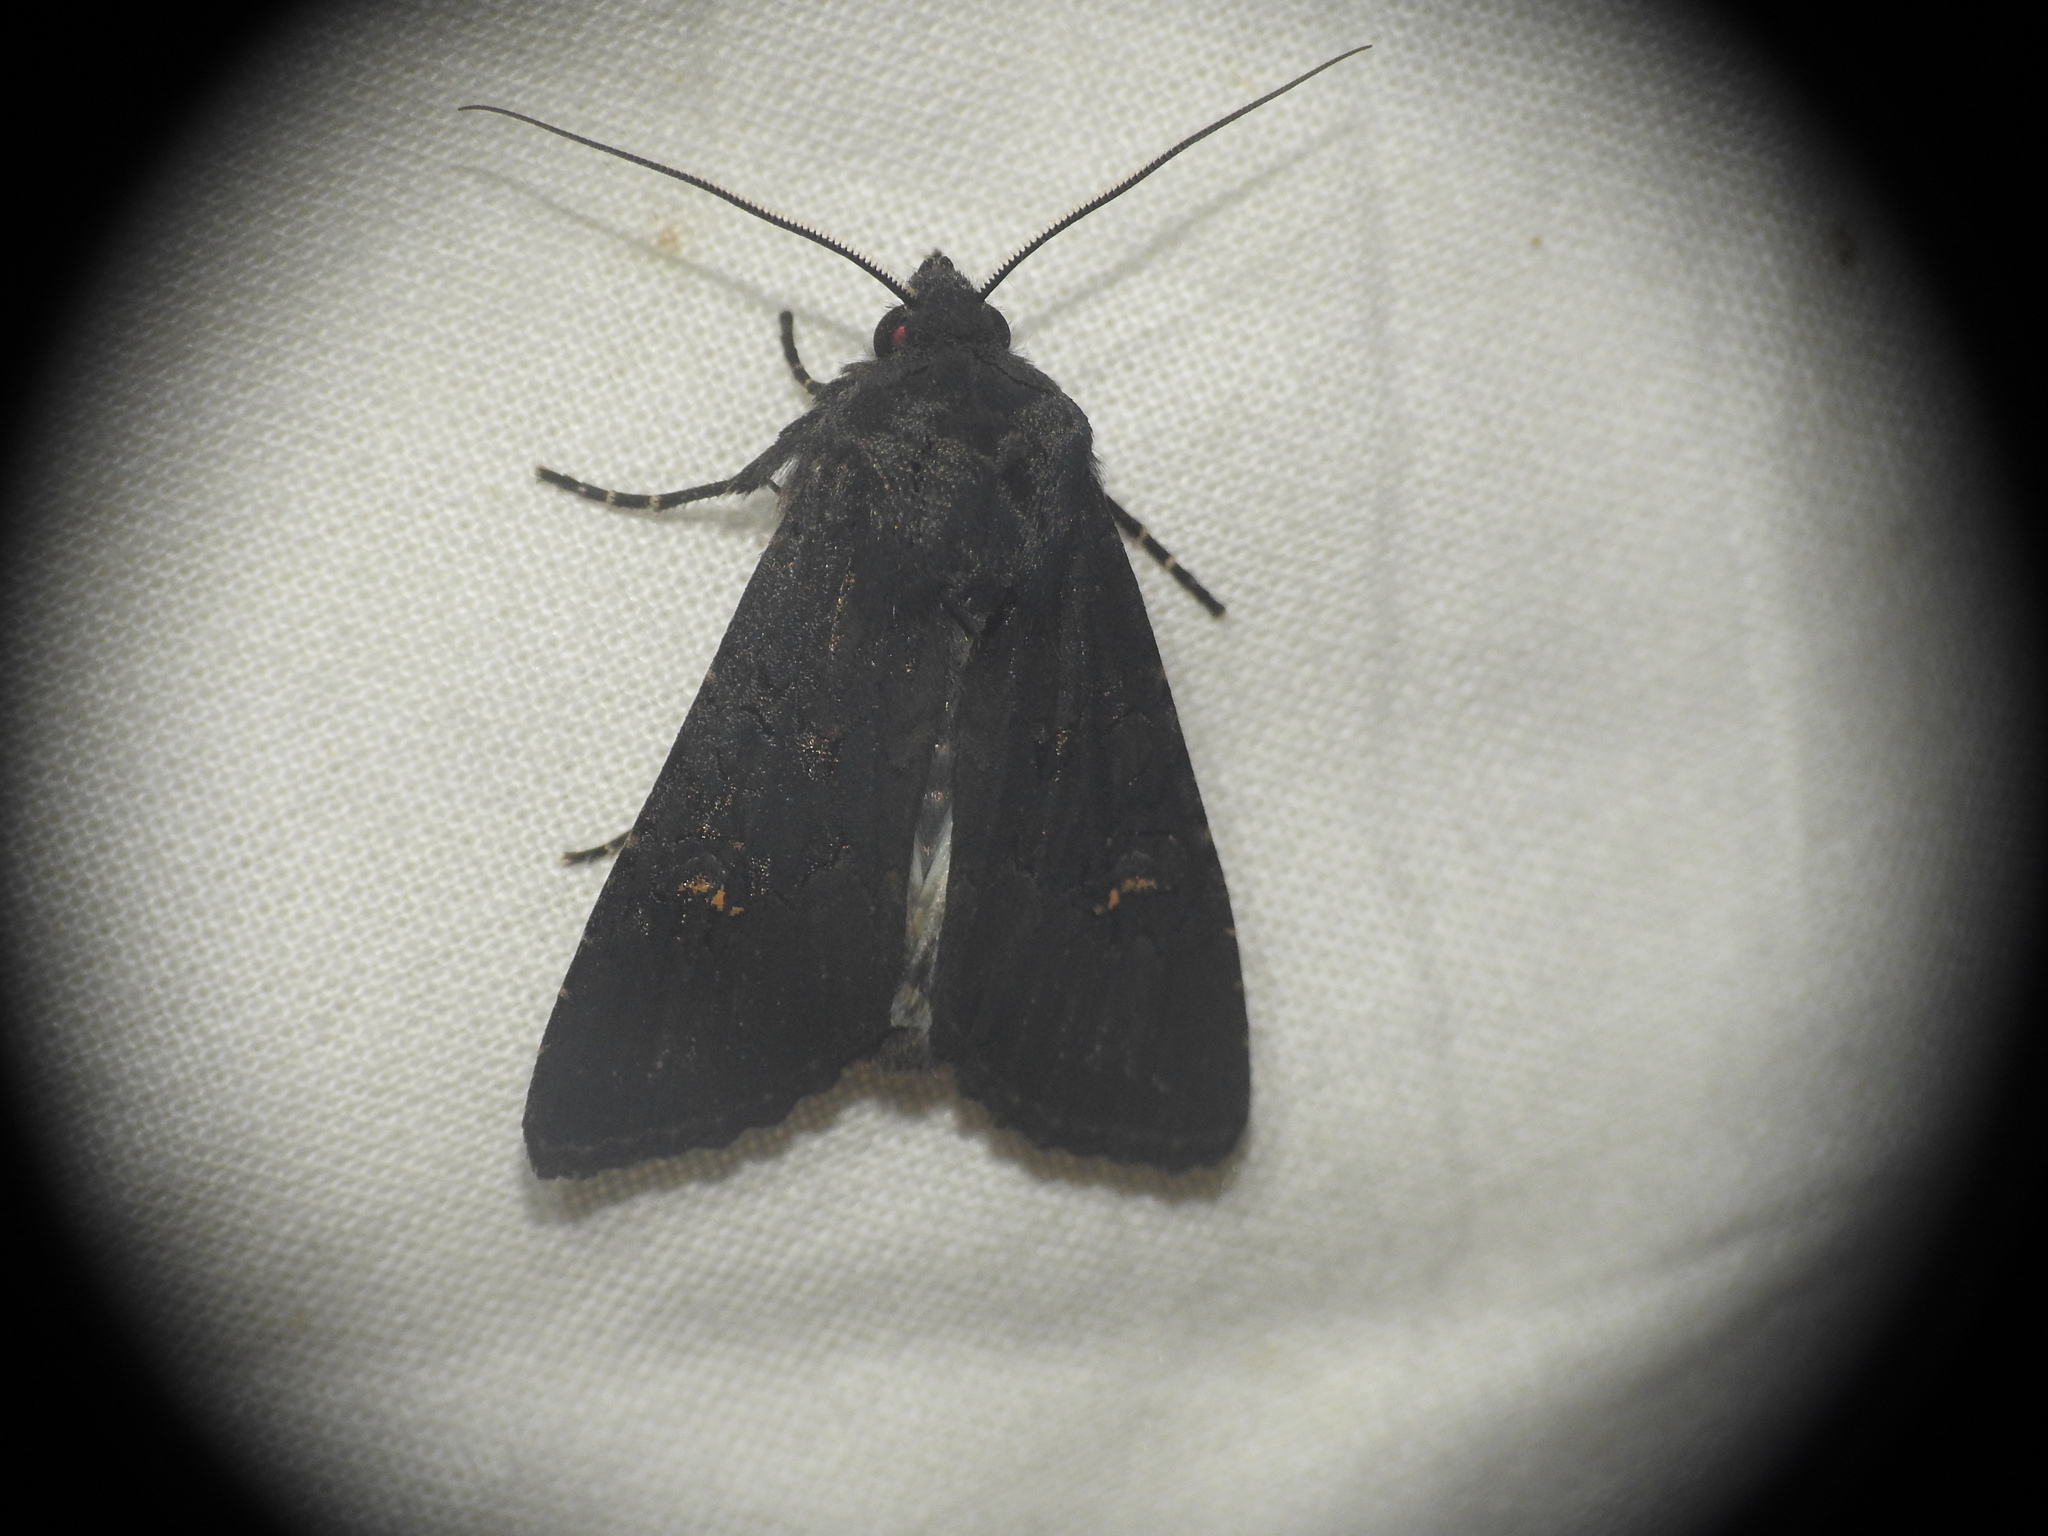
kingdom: Animalia
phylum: Arthropoda
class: Insecta
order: Lepidoptera
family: Noctuidae
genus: Aporophyla
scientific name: Aporophyla nigra
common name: Black rustic
